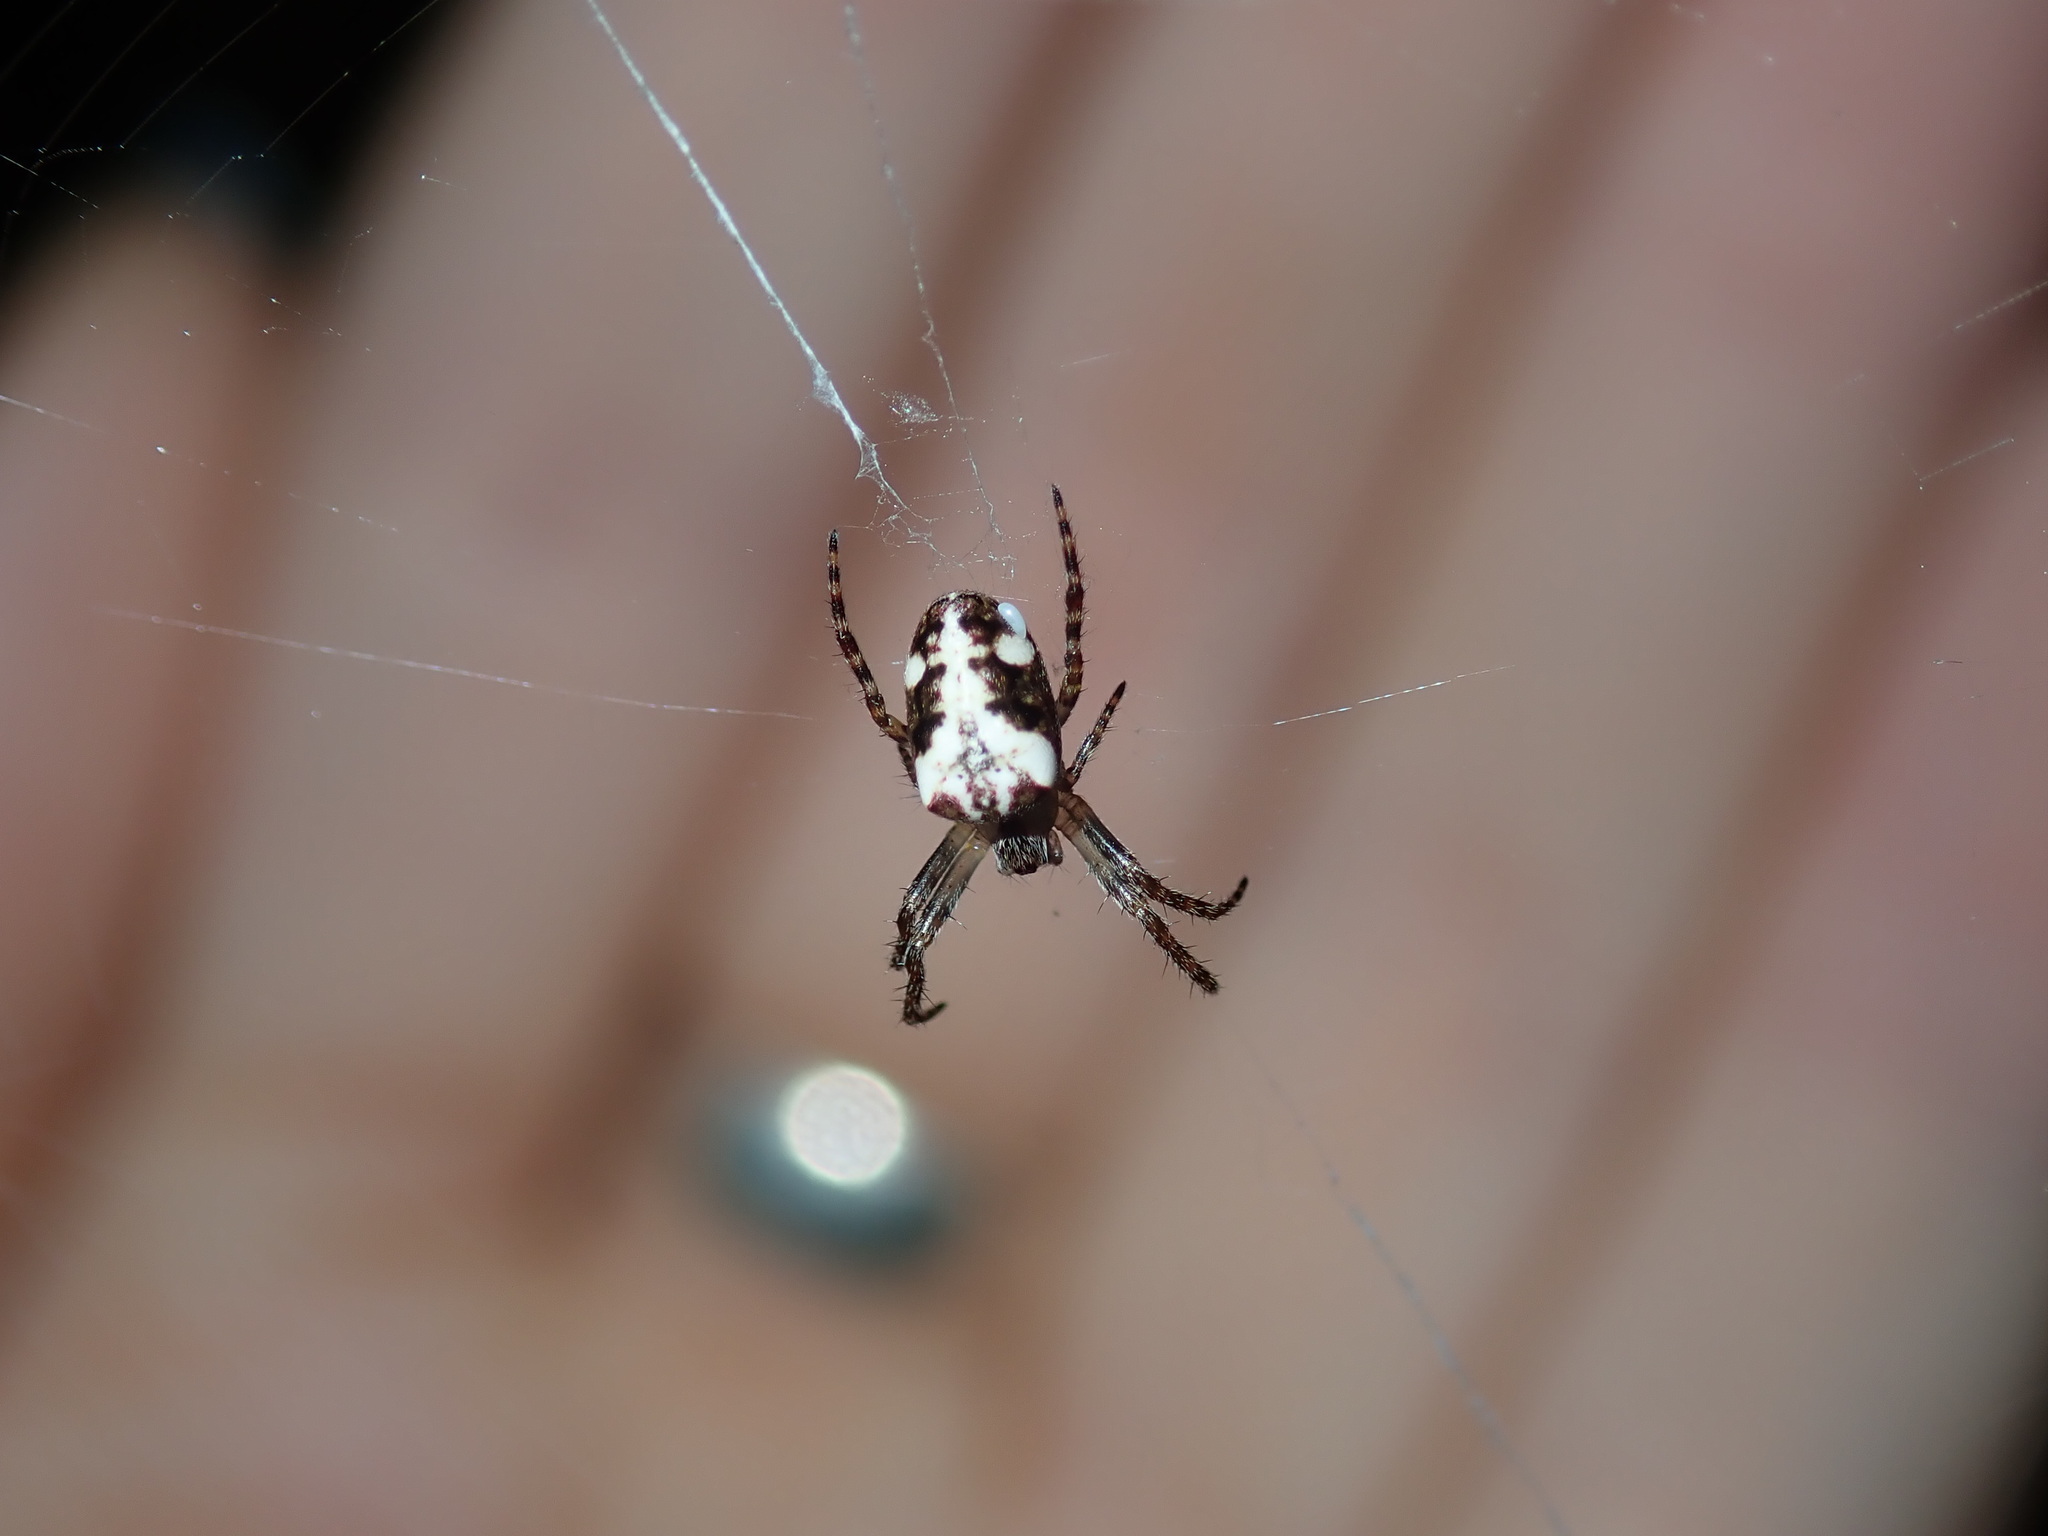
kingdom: Animalia
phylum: Arthropoda
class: Arachnida
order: Araneae
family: Araneidae
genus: Plebs
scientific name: Plebs eburnus
